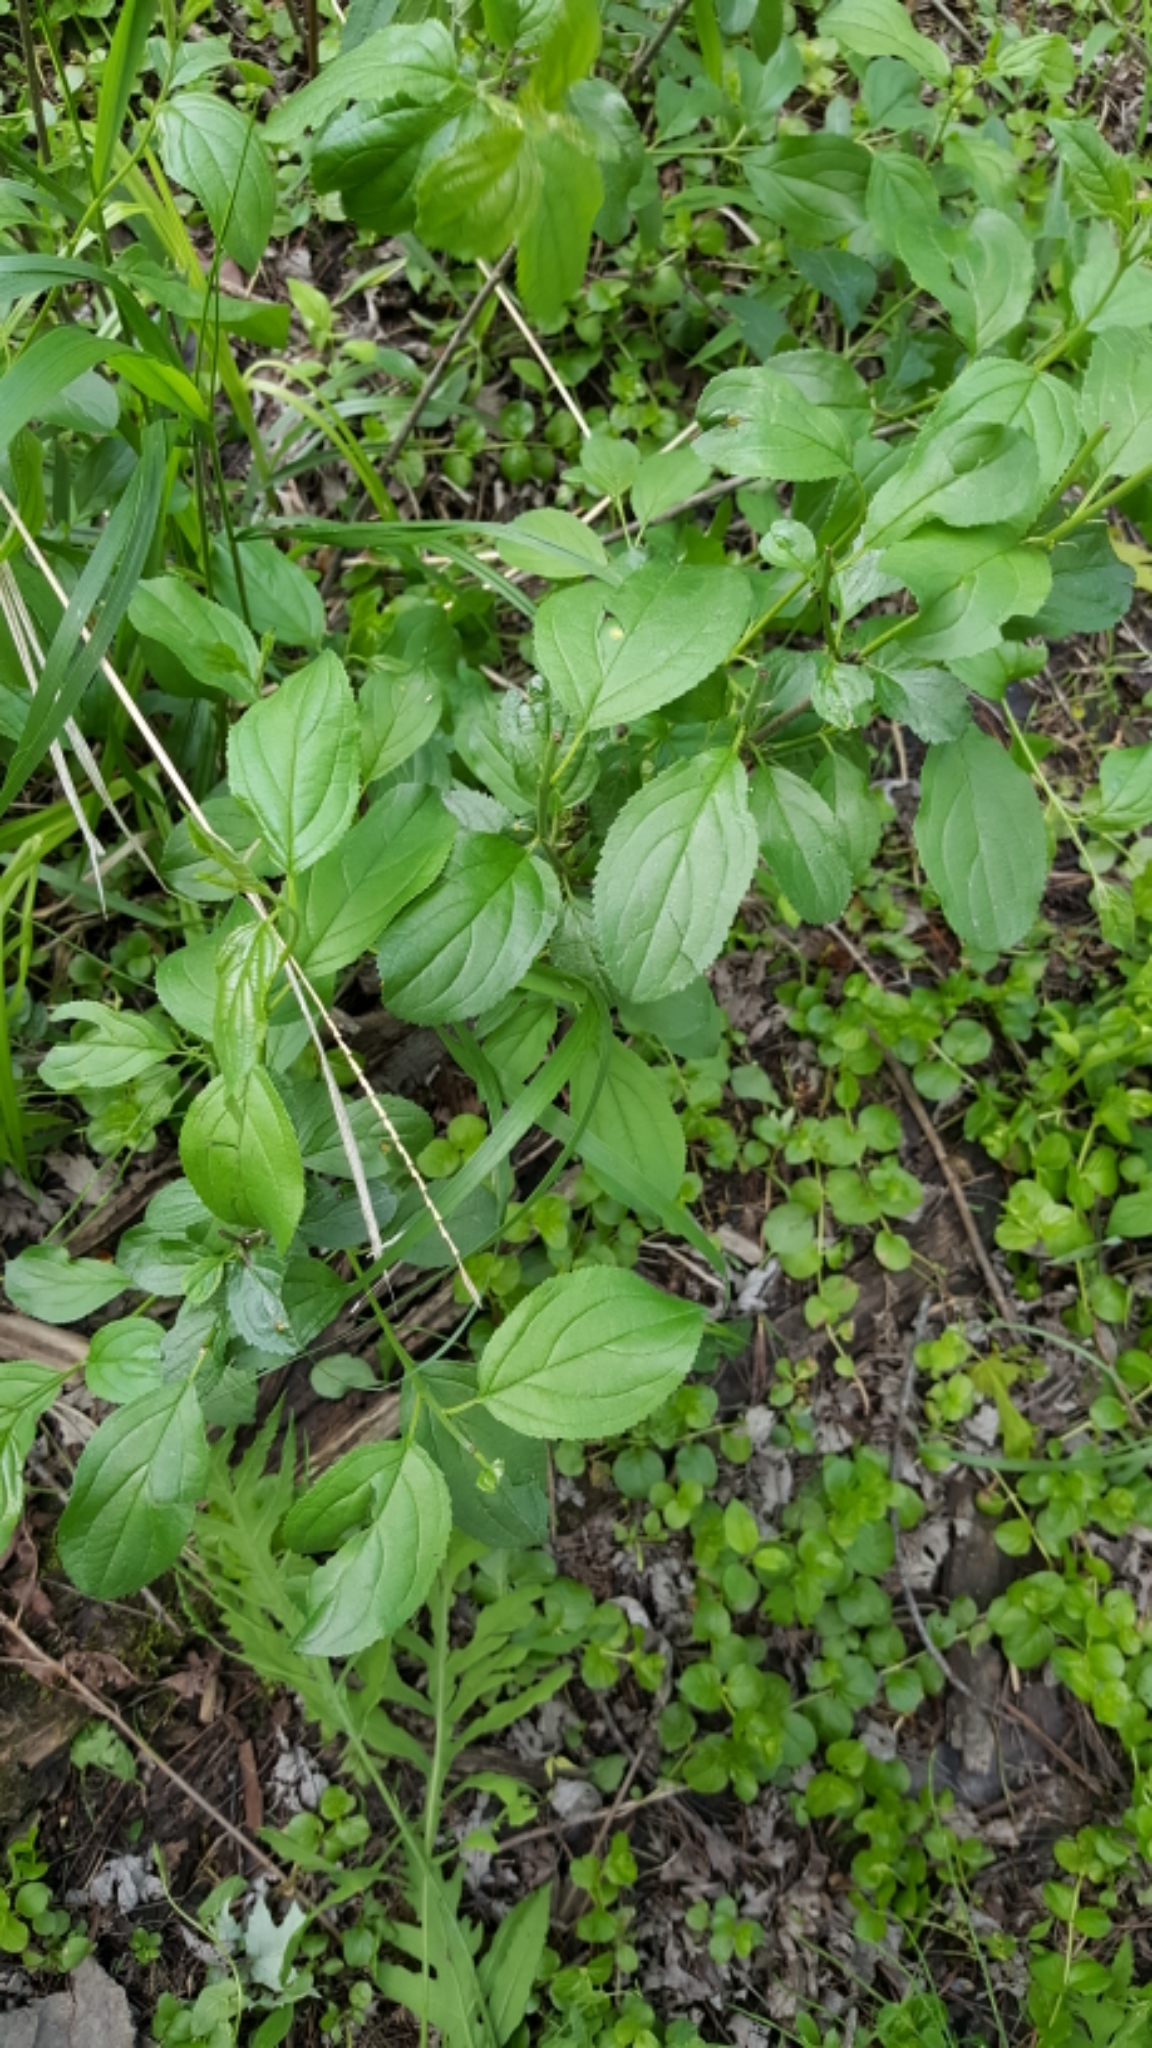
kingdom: Plantae
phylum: Tracheophyta
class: Magnoliopsida
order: Rosales
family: Rhamnaceae
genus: Rhamnus
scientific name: Rhamnus cathartica
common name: Common buckthorn
